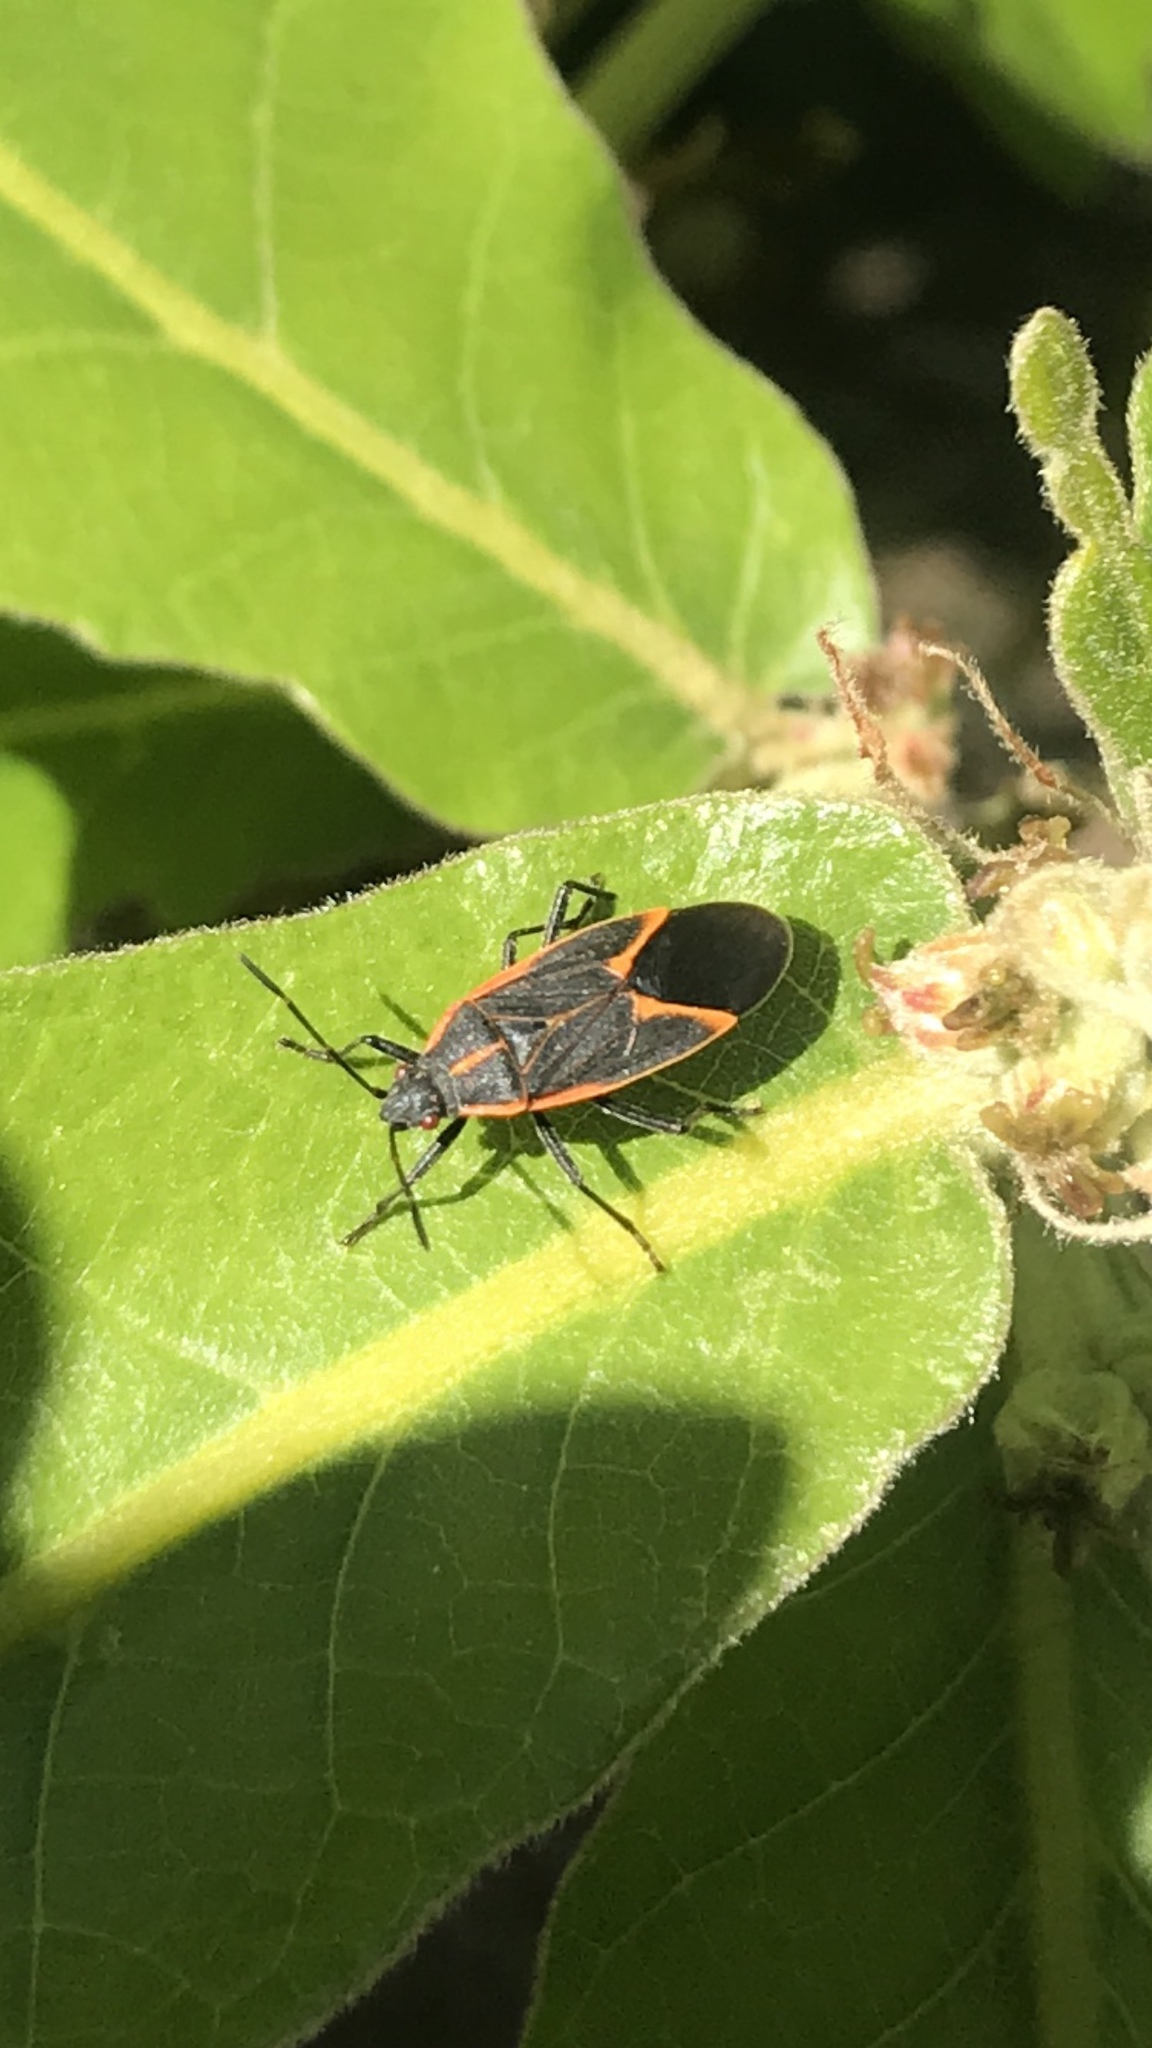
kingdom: Animalia
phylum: Arthropoda
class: Insecta
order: Hemiptera
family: Rhopalidae
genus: Boisea
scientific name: Boisea trivittata
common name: Boxelder bug
